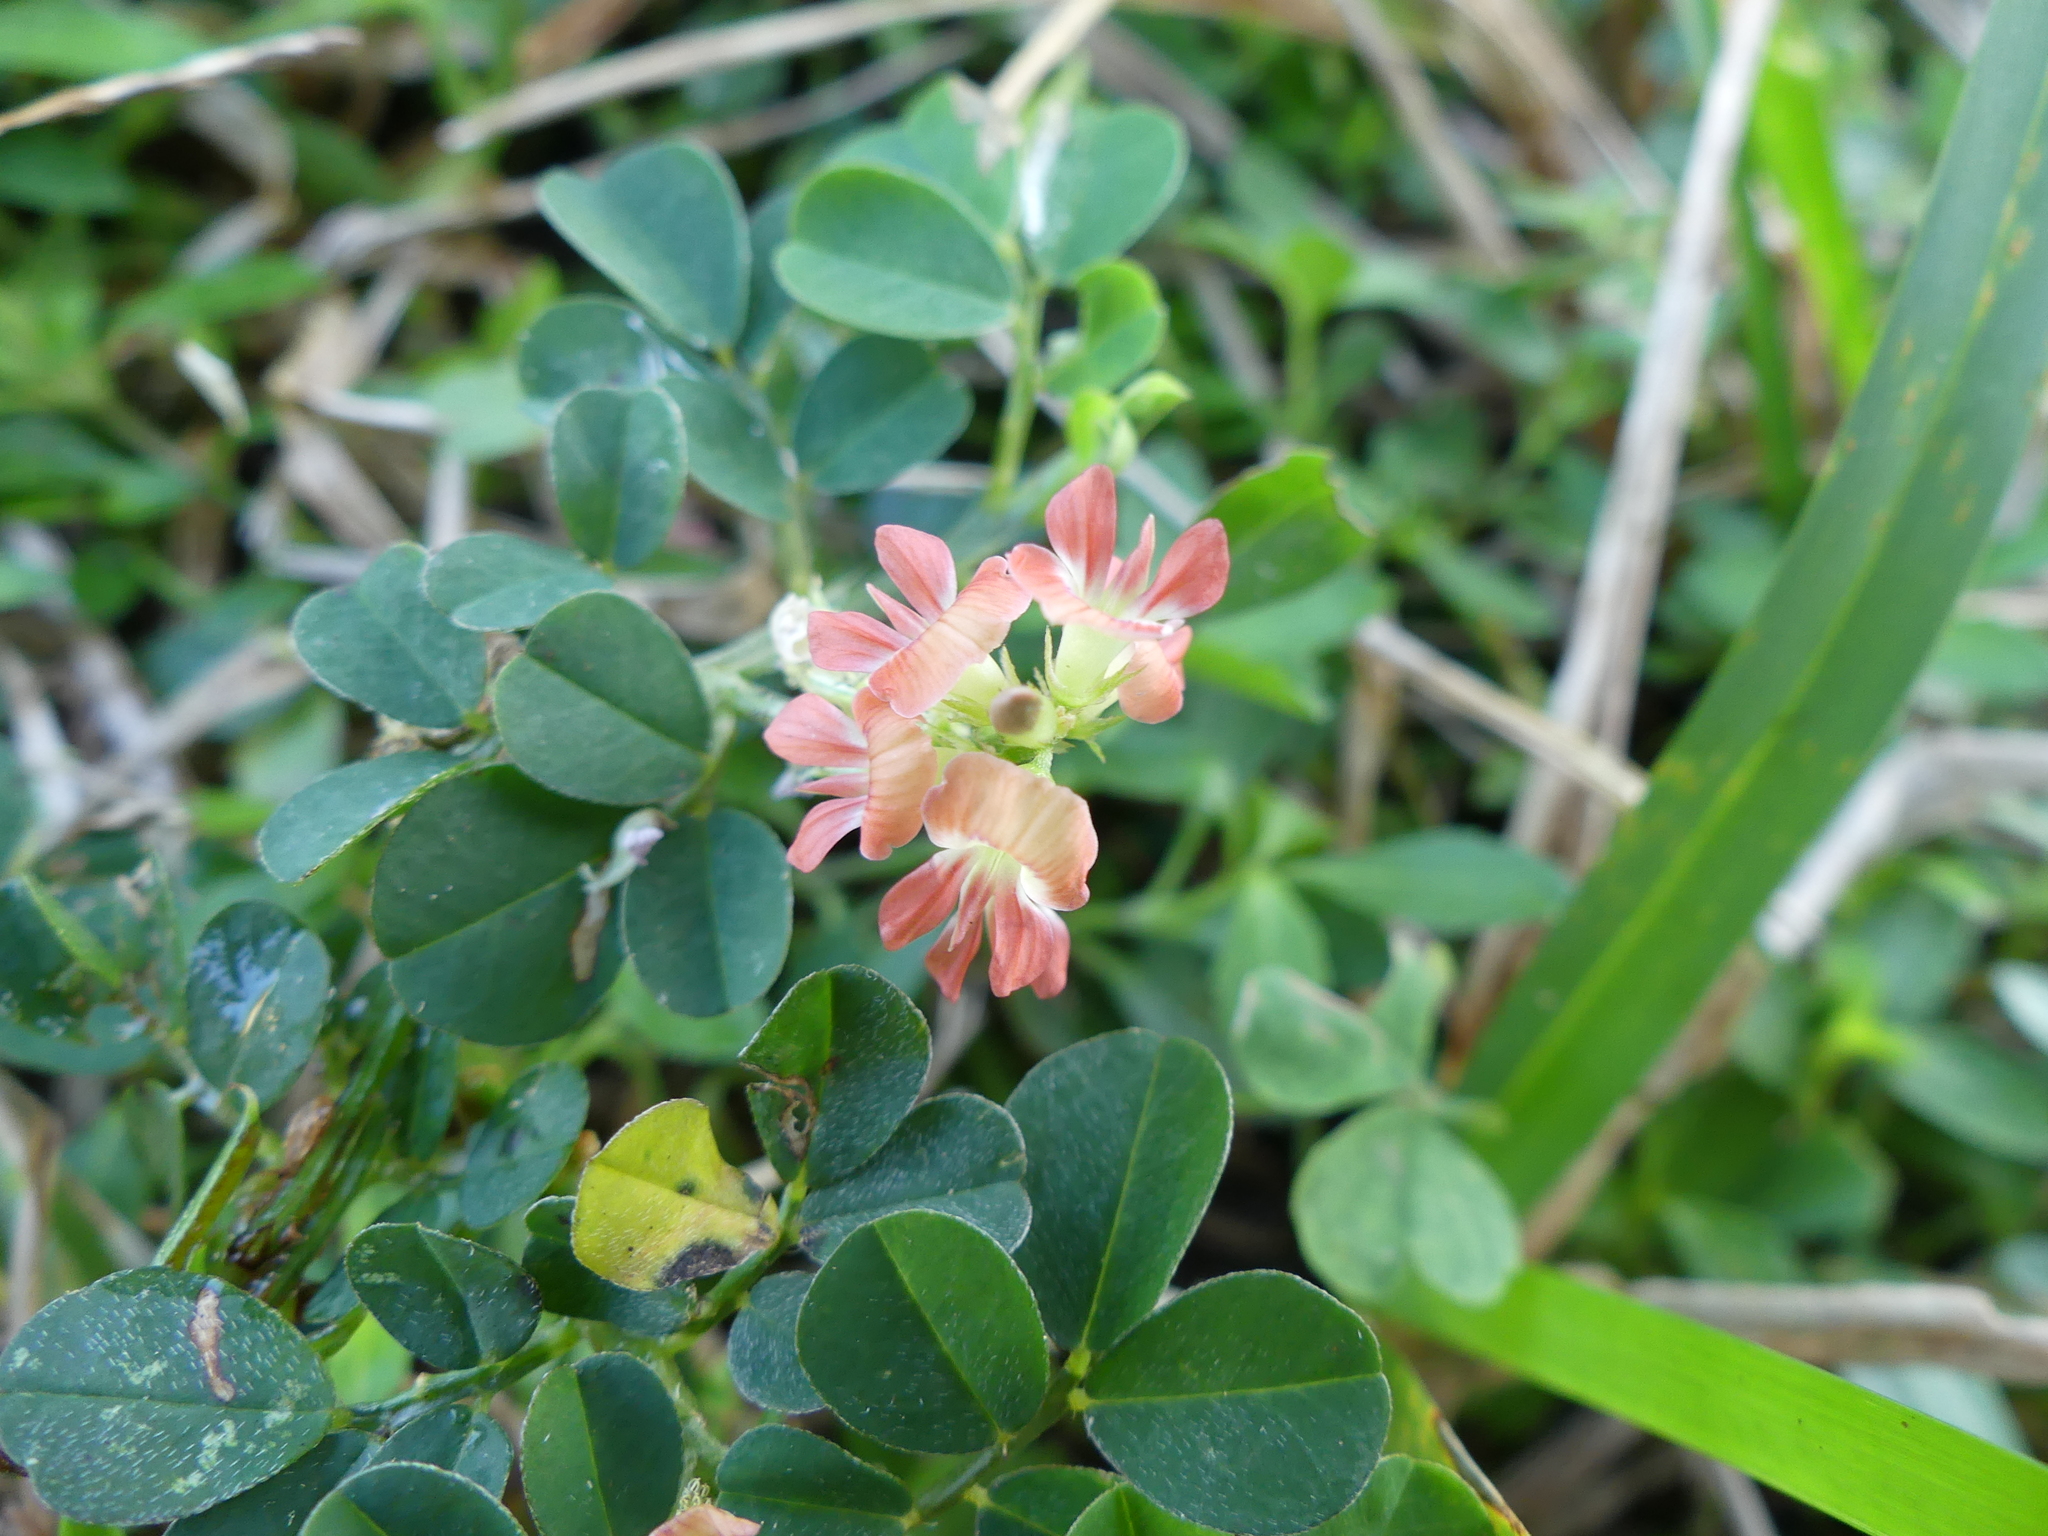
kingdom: Plantae
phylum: Tracheophyta
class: Magnoliopsida
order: Fabales
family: Fabaceae
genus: Indigofera
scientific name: Indigofera spicata
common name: Creeping indigo
